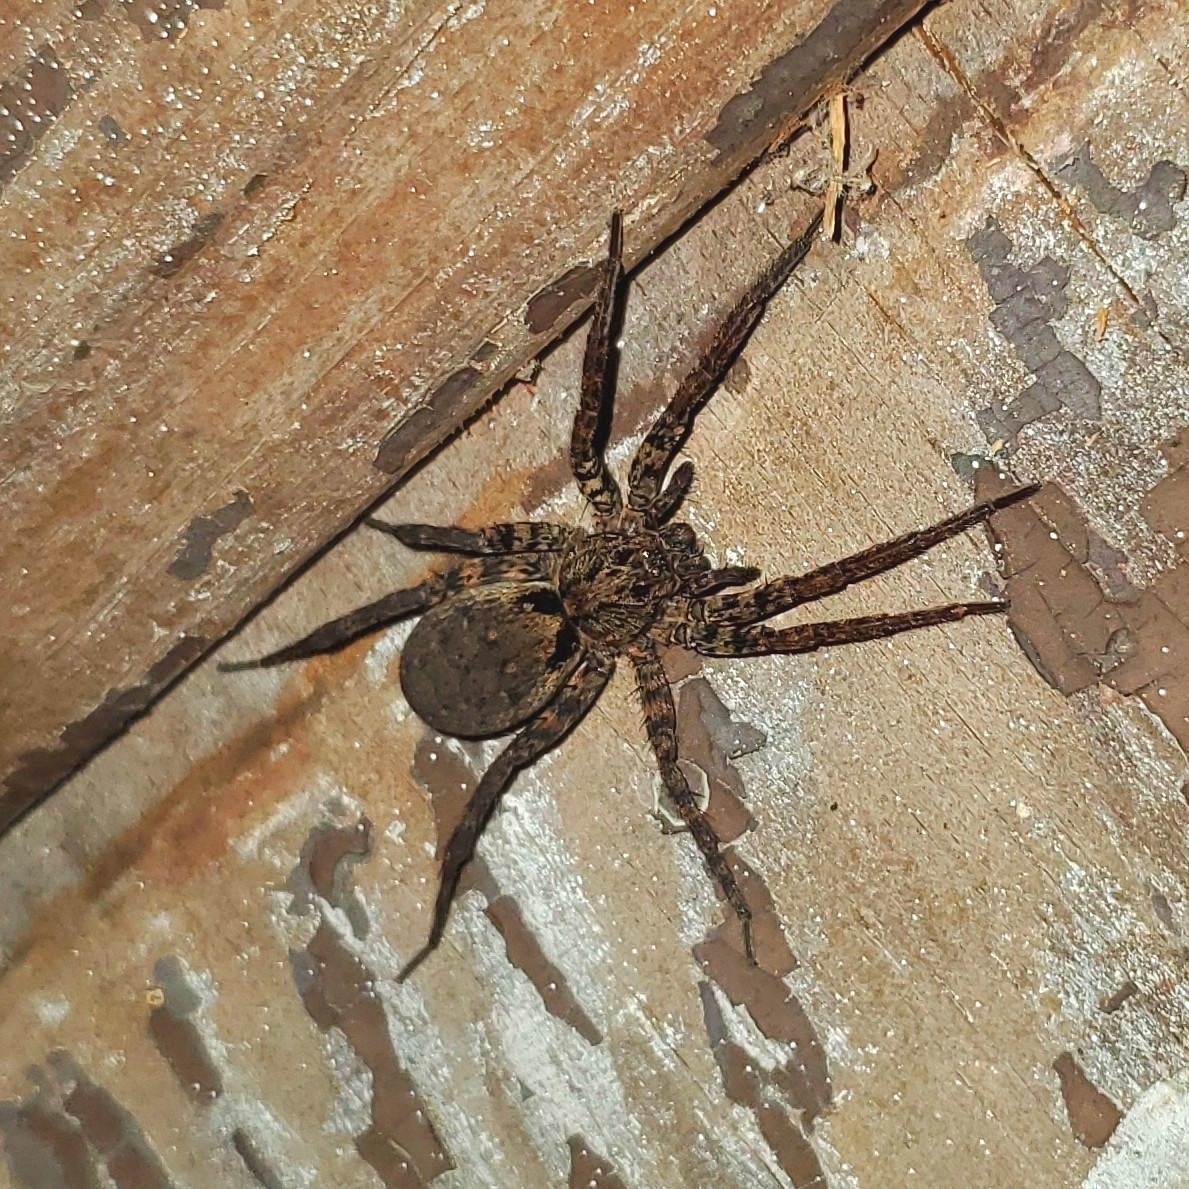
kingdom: Animalia
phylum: Arthropoda
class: Arachnida
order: Araneae
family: Lycosidae
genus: Gladicosa
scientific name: Gladicosa gulosa
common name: Drumming sword wolf spider
